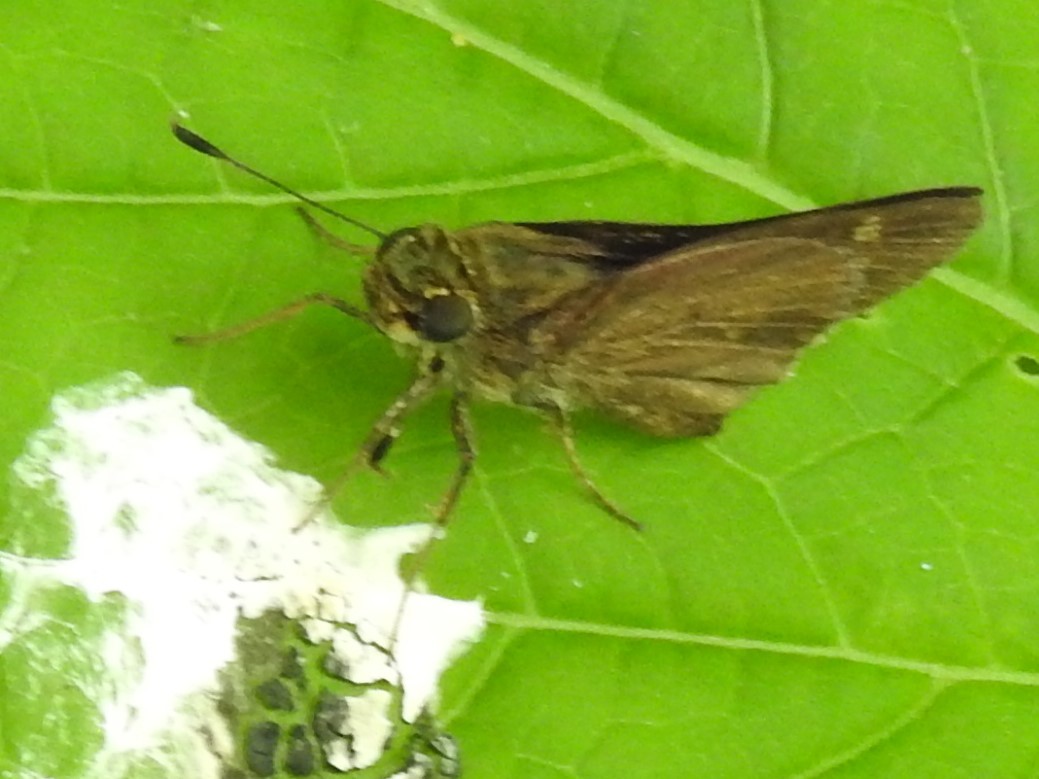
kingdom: Animalia
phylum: Arthropoda
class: Insecta
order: Lepidoptera
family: Hesperiidae
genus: Vernia
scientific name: Vernia verna
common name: Little glassywing
